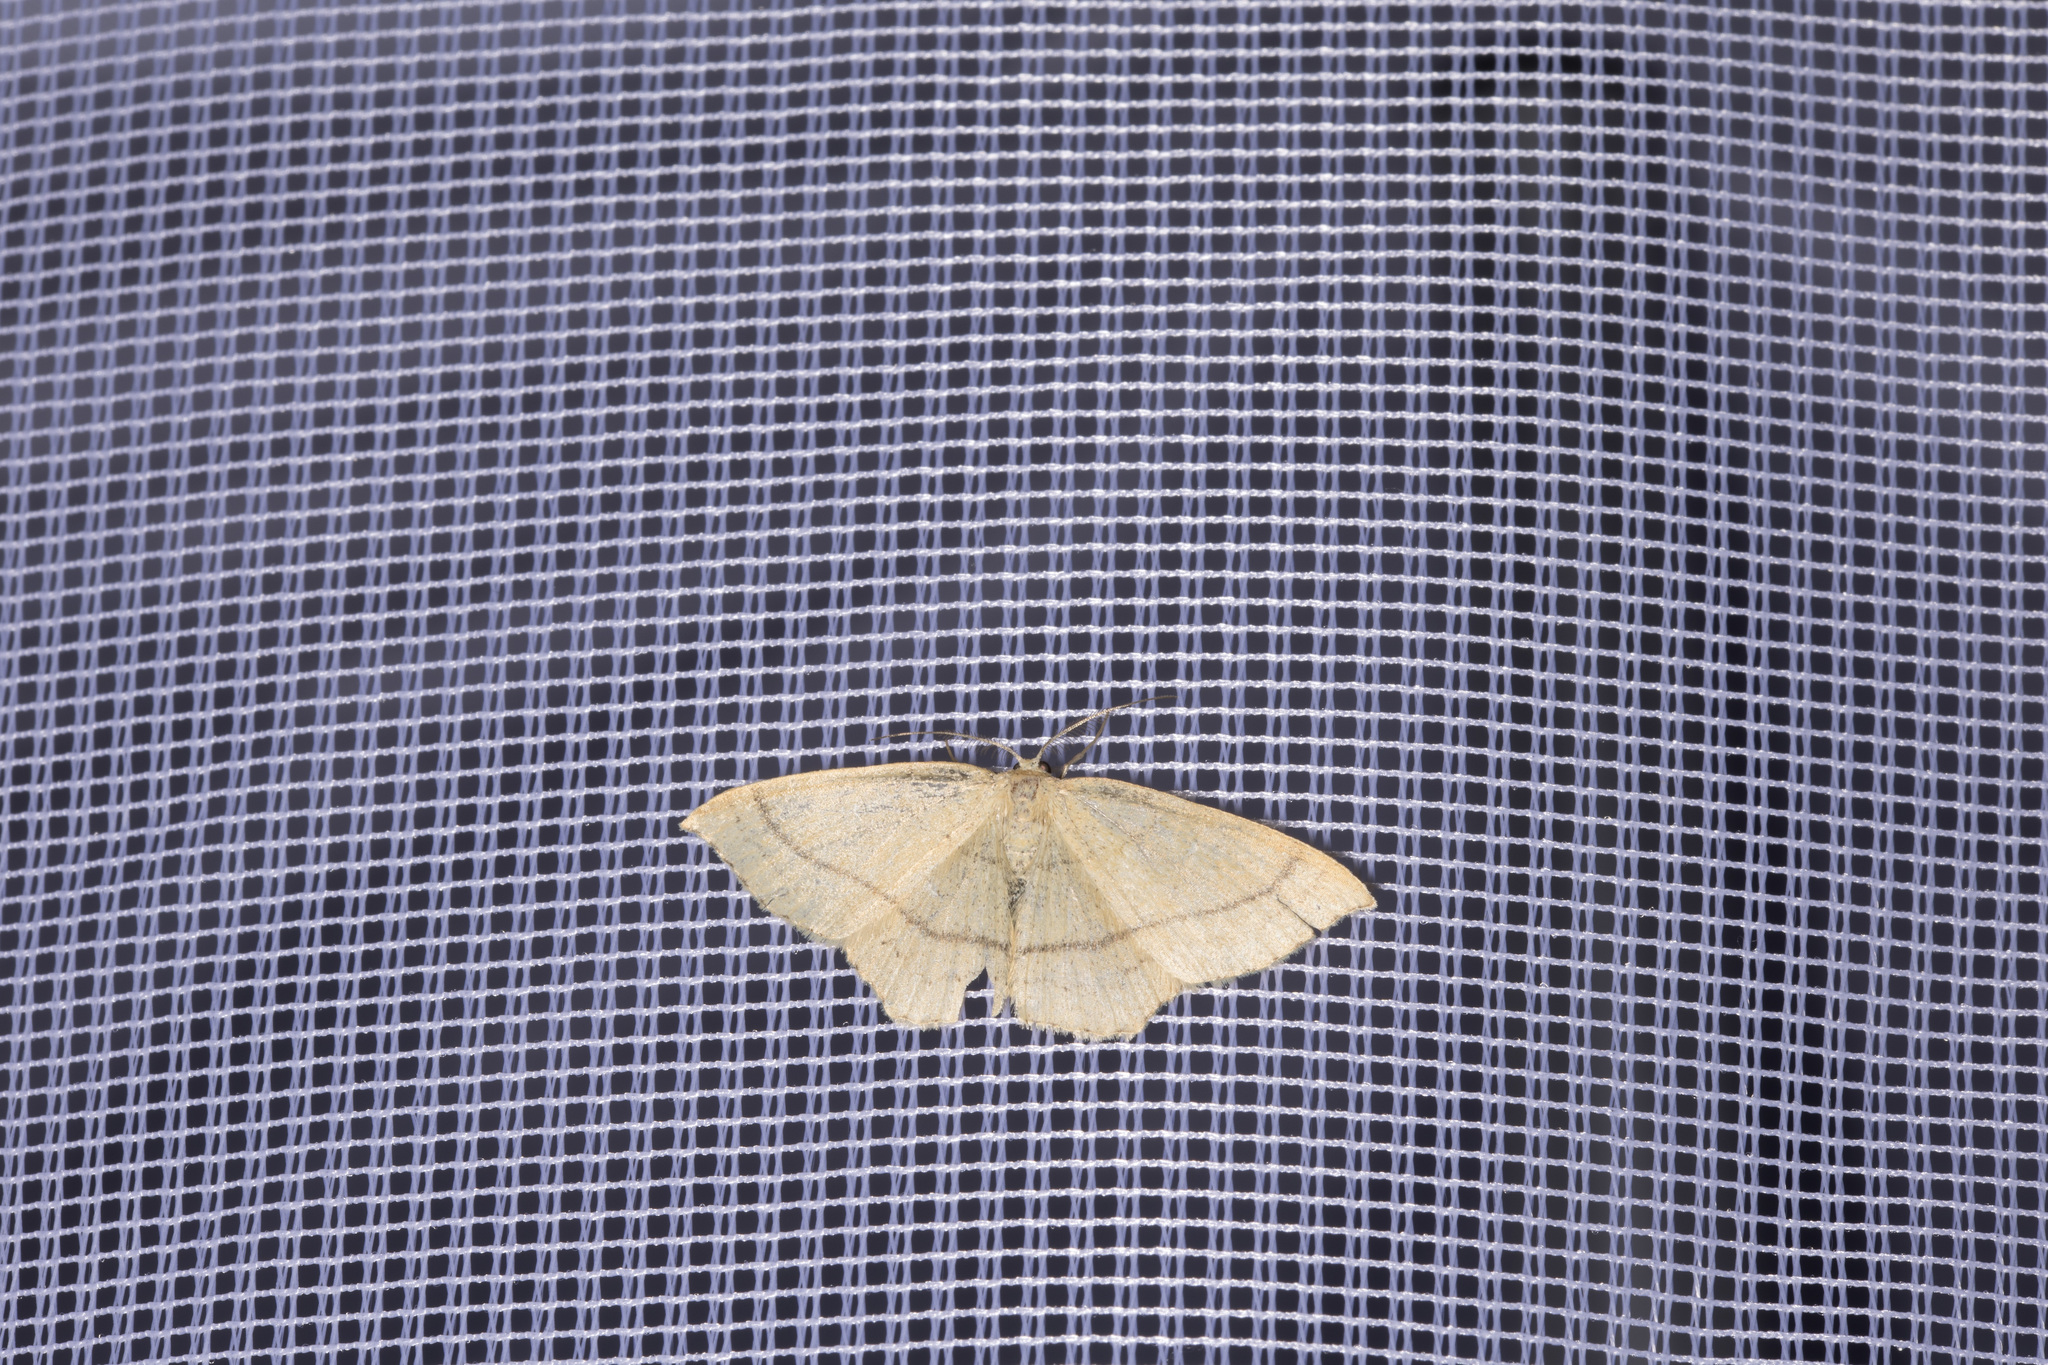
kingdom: Animalia
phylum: Arthropoda
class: Insecta
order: Lepidoptera
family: Geometridae
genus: Cyclophora
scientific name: Cyclophora linearia
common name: Clay triple-lines
